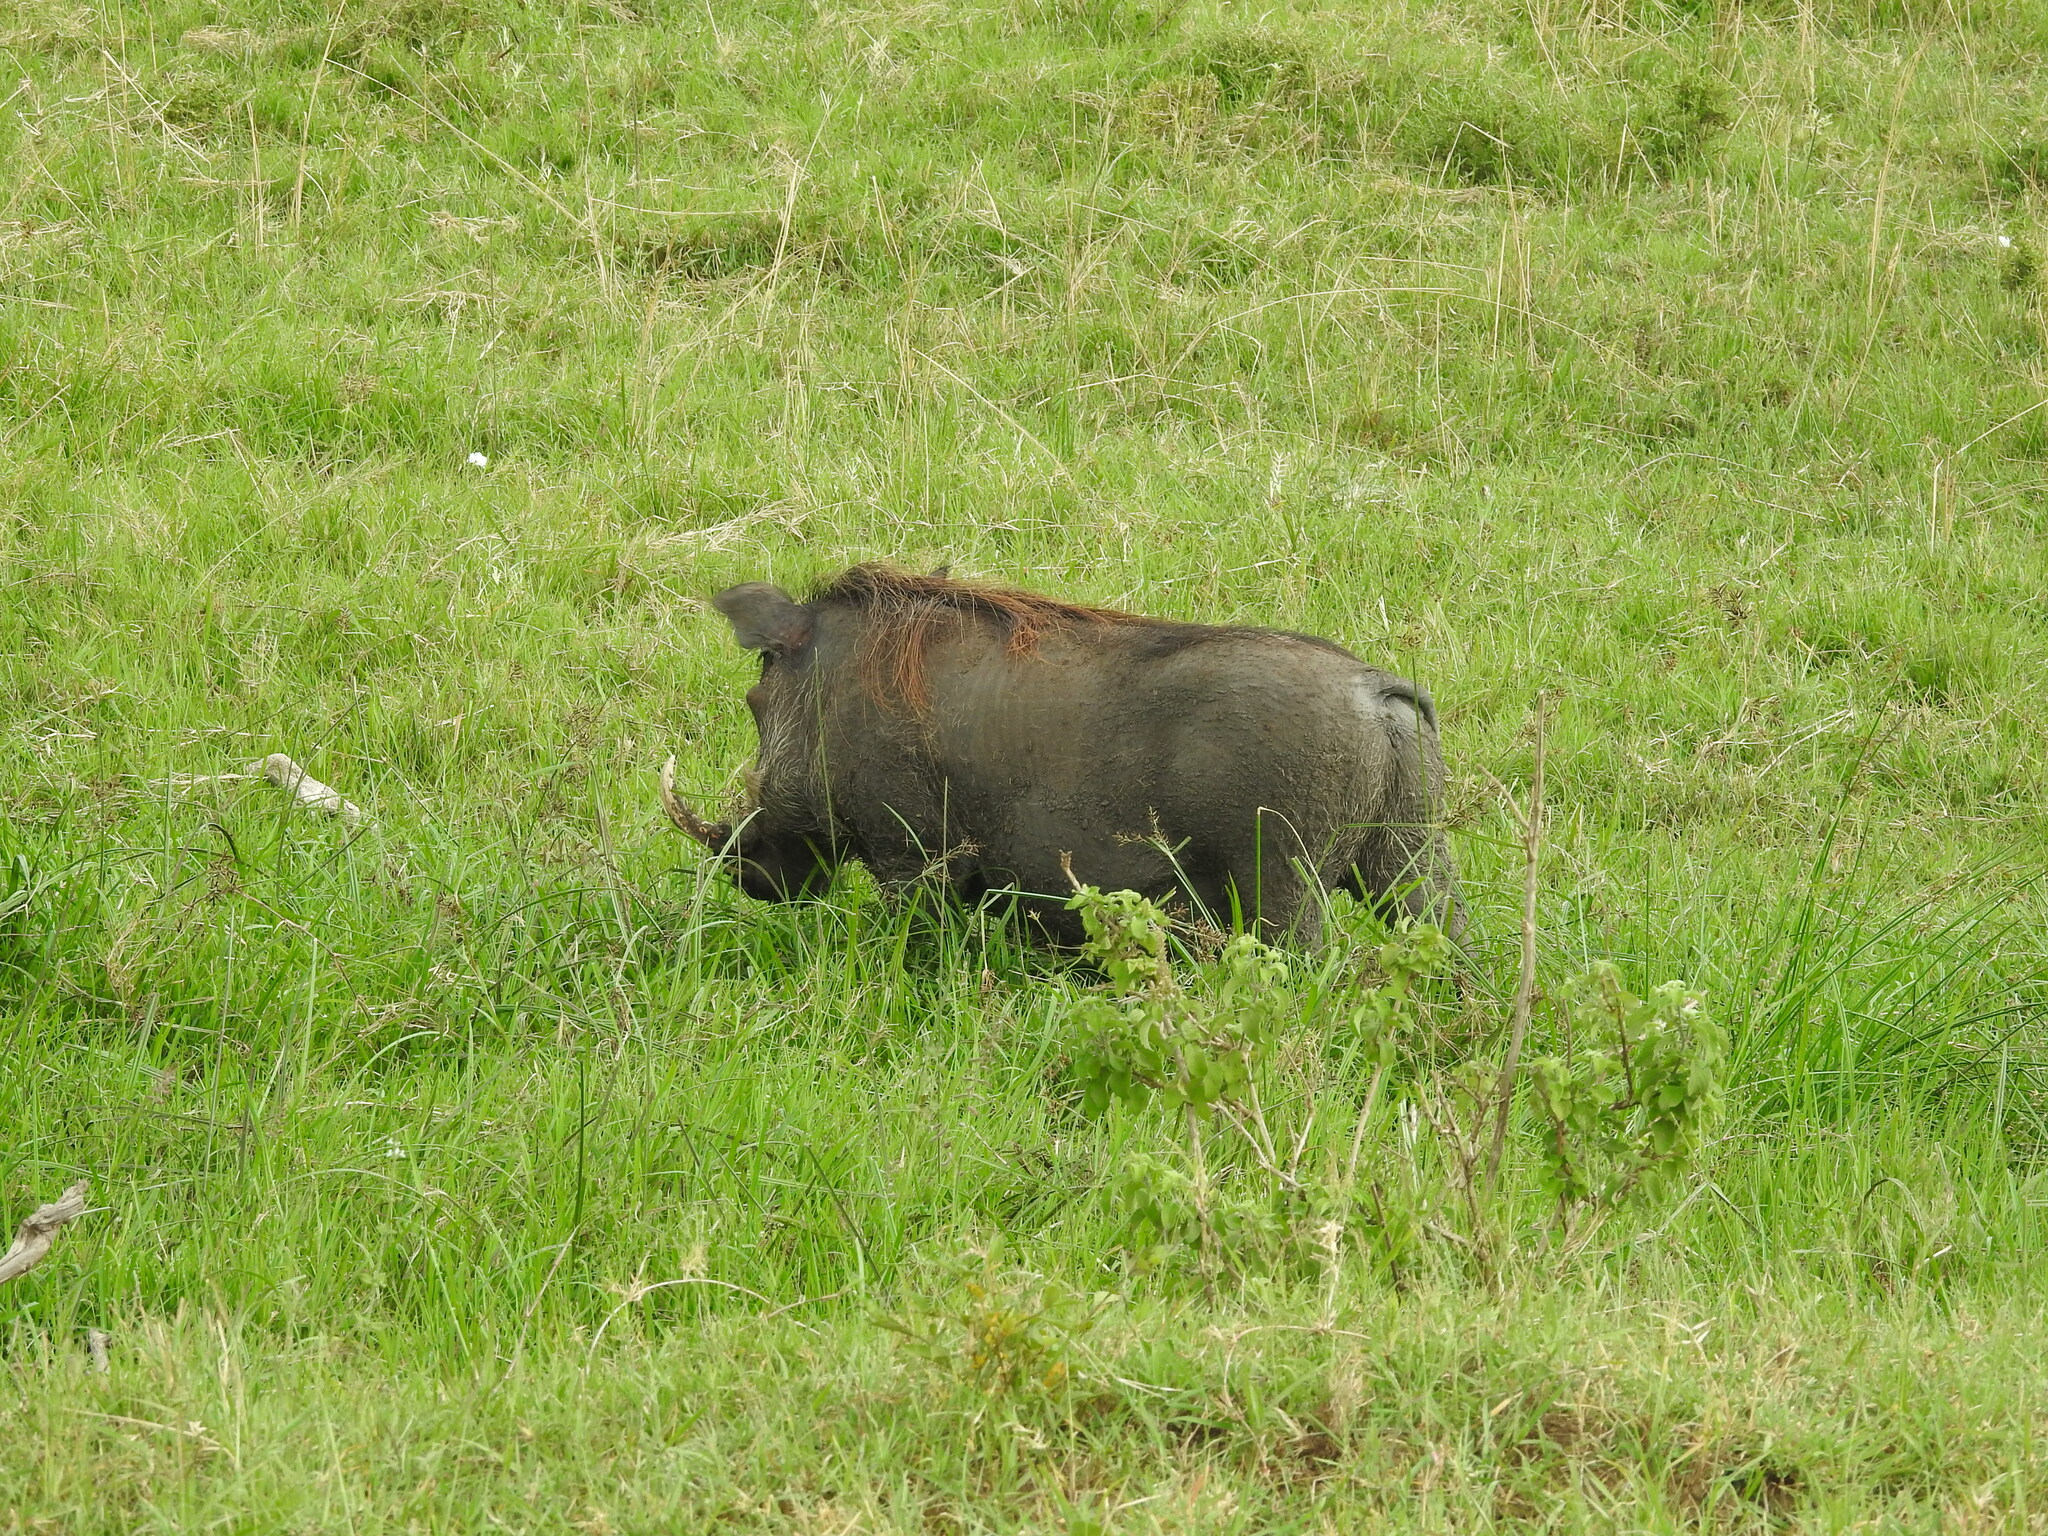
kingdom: Animalia
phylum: Chordata
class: Mammalia
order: Artiodactyla
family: Suidae
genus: Phacochoerus
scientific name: Phacochoerus africanus
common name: Common warthog
